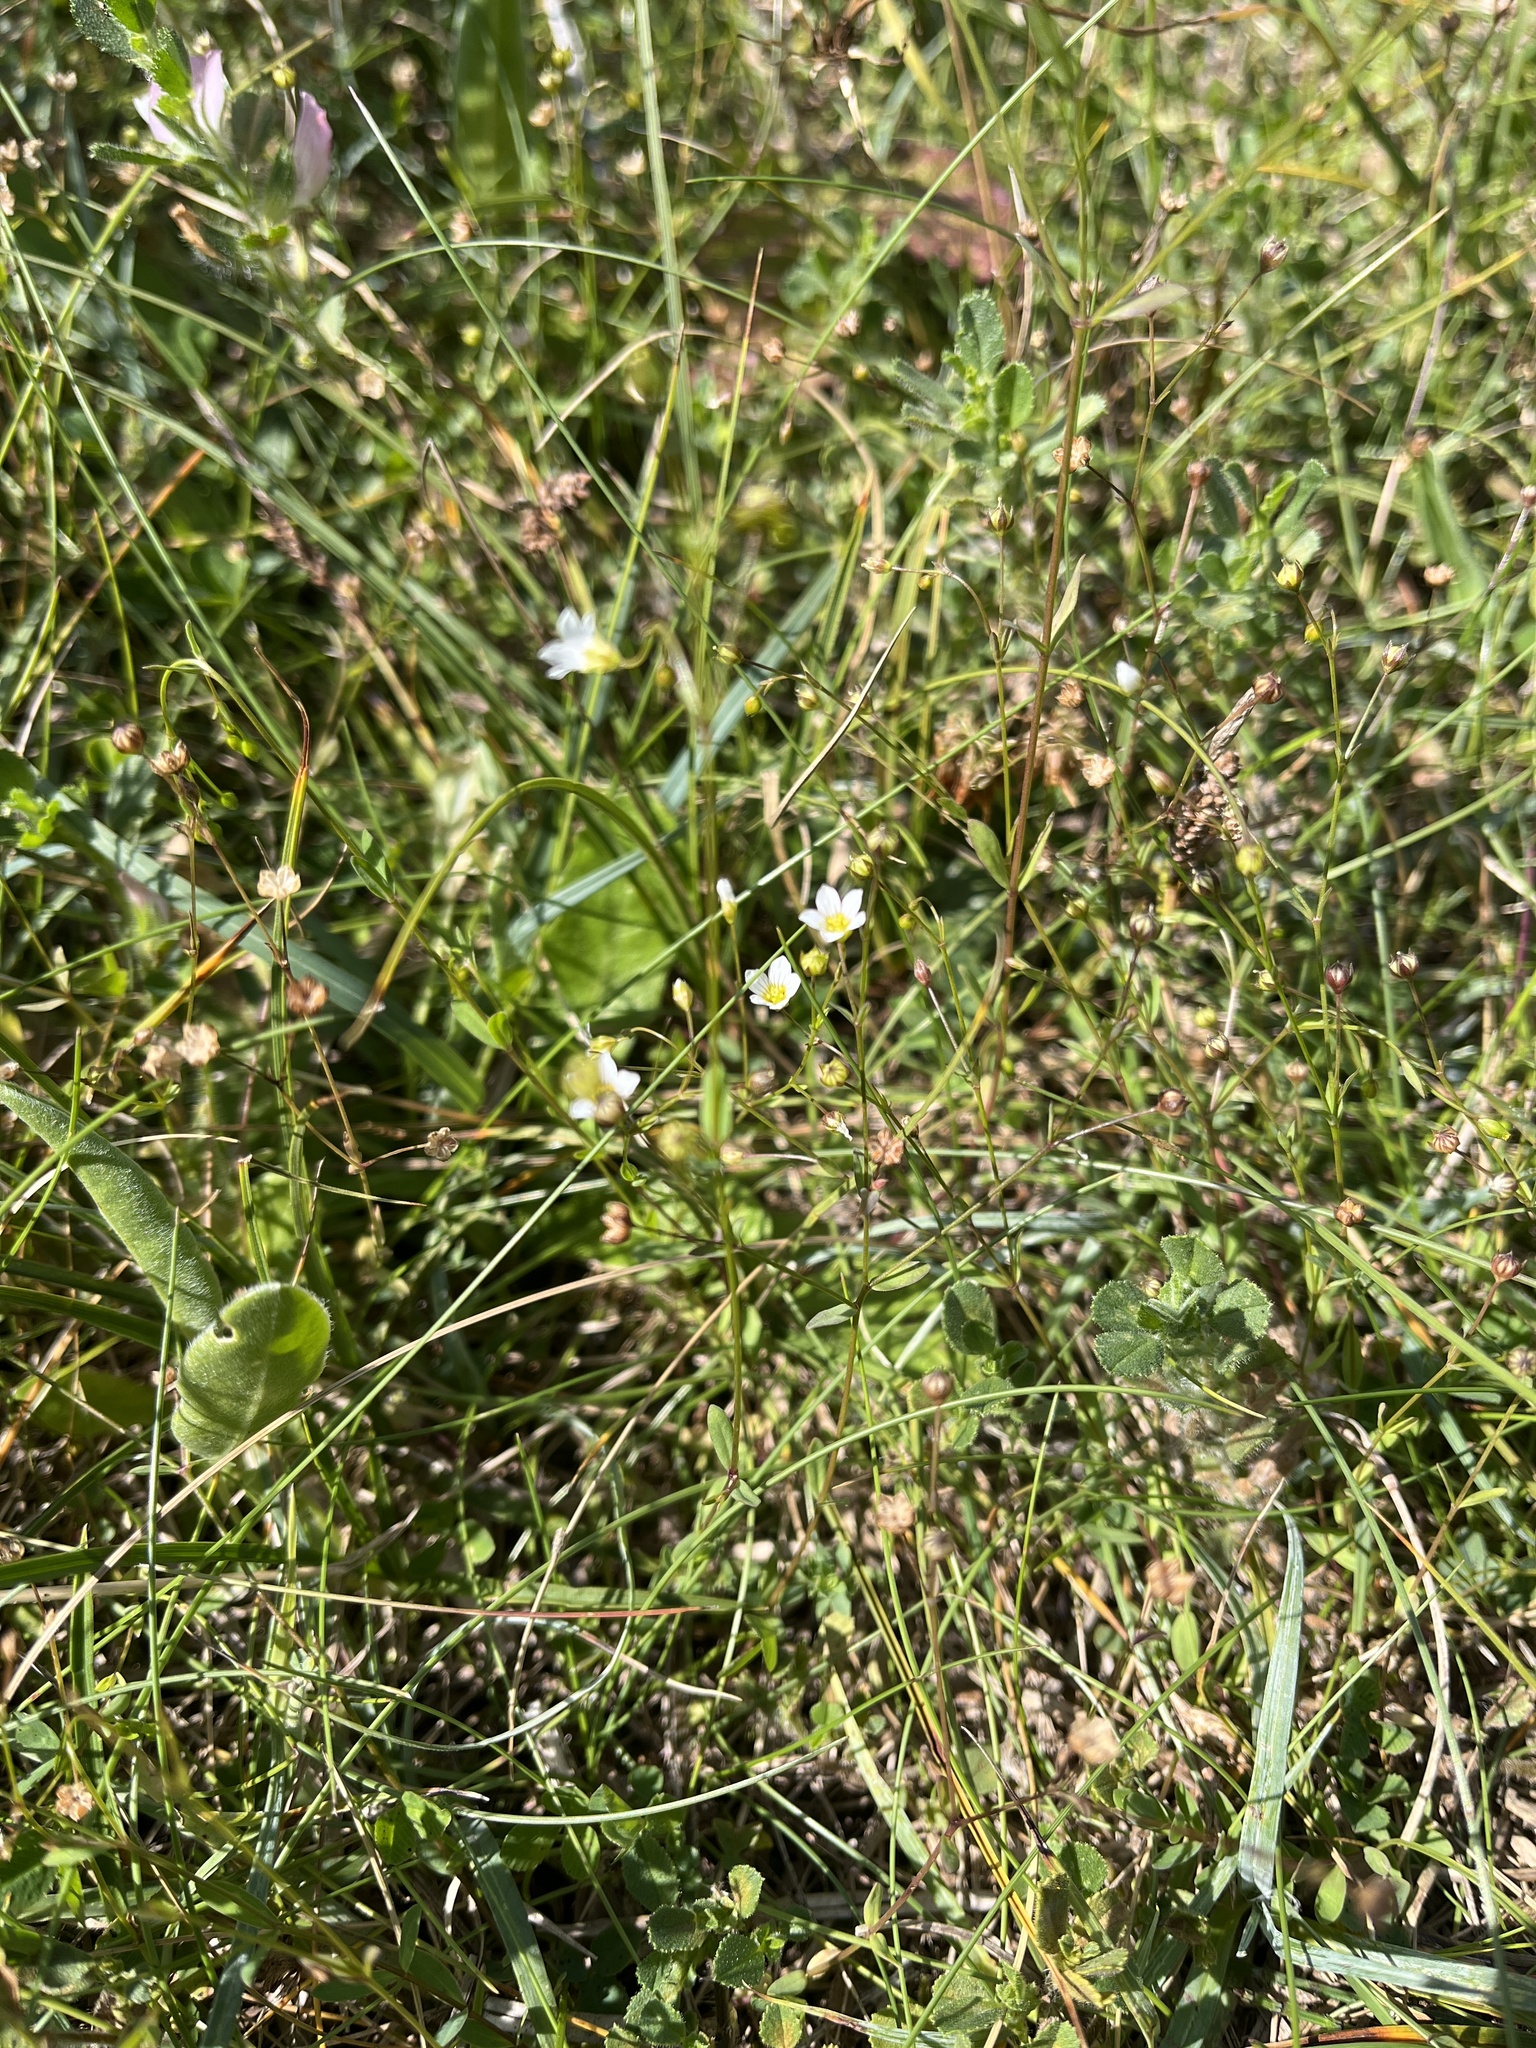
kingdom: Plantae
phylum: Tracheophyta
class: Magnoliopsida
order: Malpighiales
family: Linaceae
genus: Linum
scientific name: Linum catharticum
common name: Fairy flax
